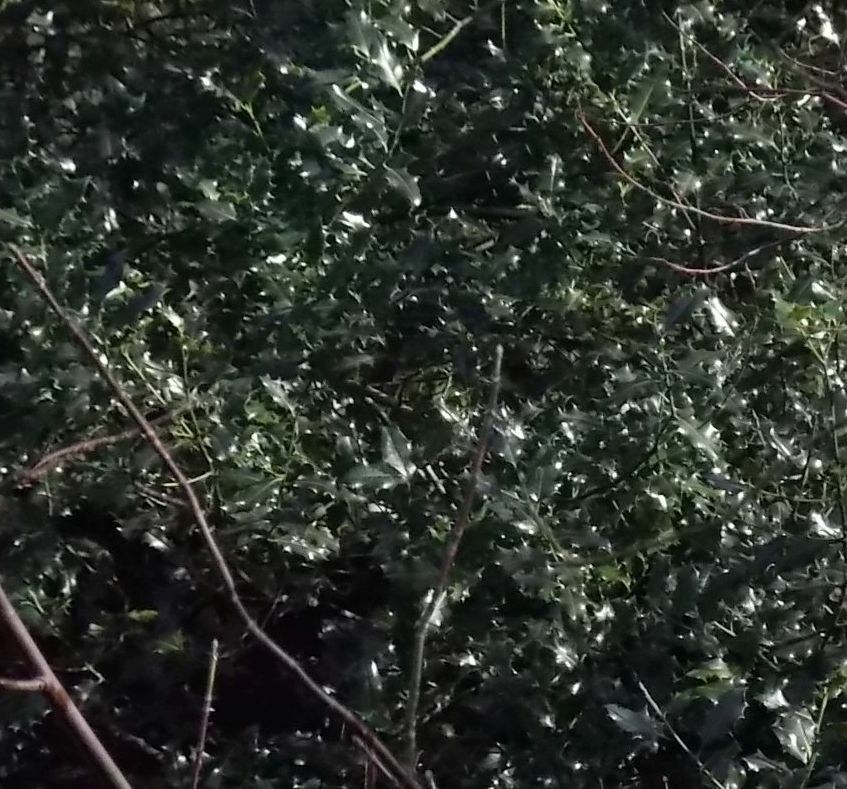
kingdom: Plantae
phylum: Tracheophyta
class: Magnoliopsida
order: Aquifoliales
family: Aquifoliaceae
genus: Ilex
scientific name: Ilex aquifolium
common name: English holly
